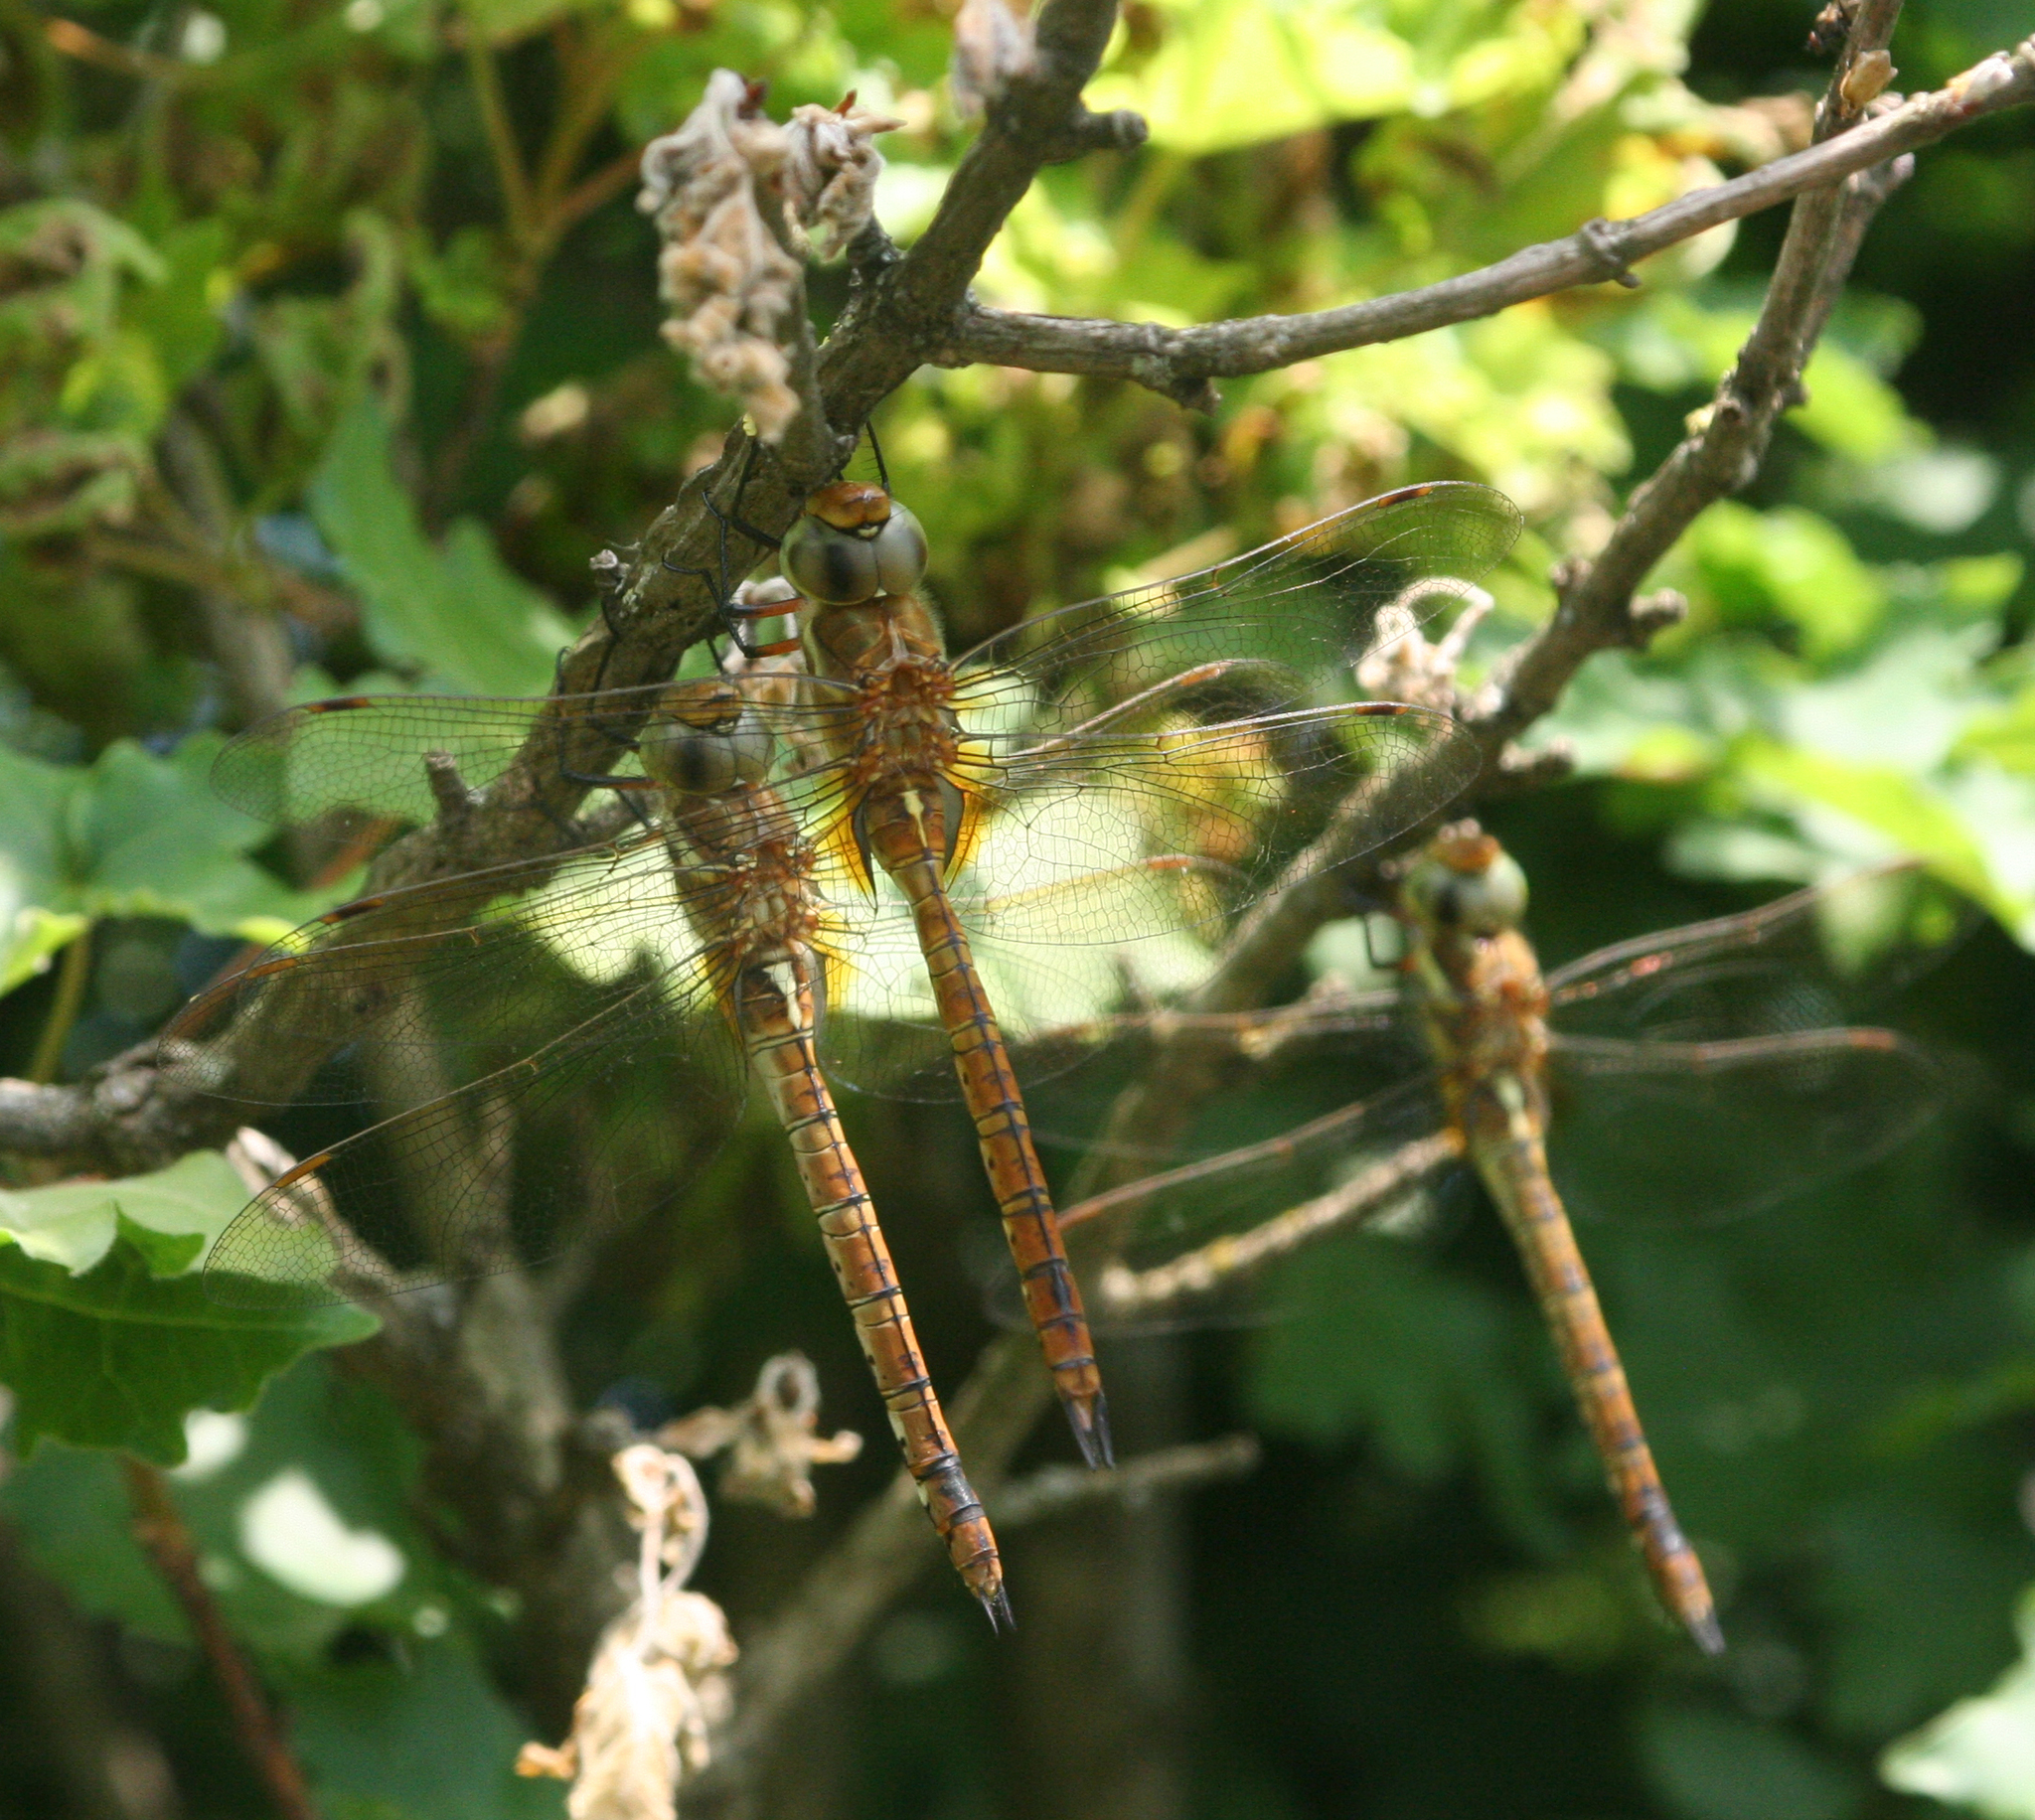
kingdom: Animalia
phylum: Arthropoda
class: Insecta
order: Odonata
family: Aeshnidae
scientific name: Aeshnidae
